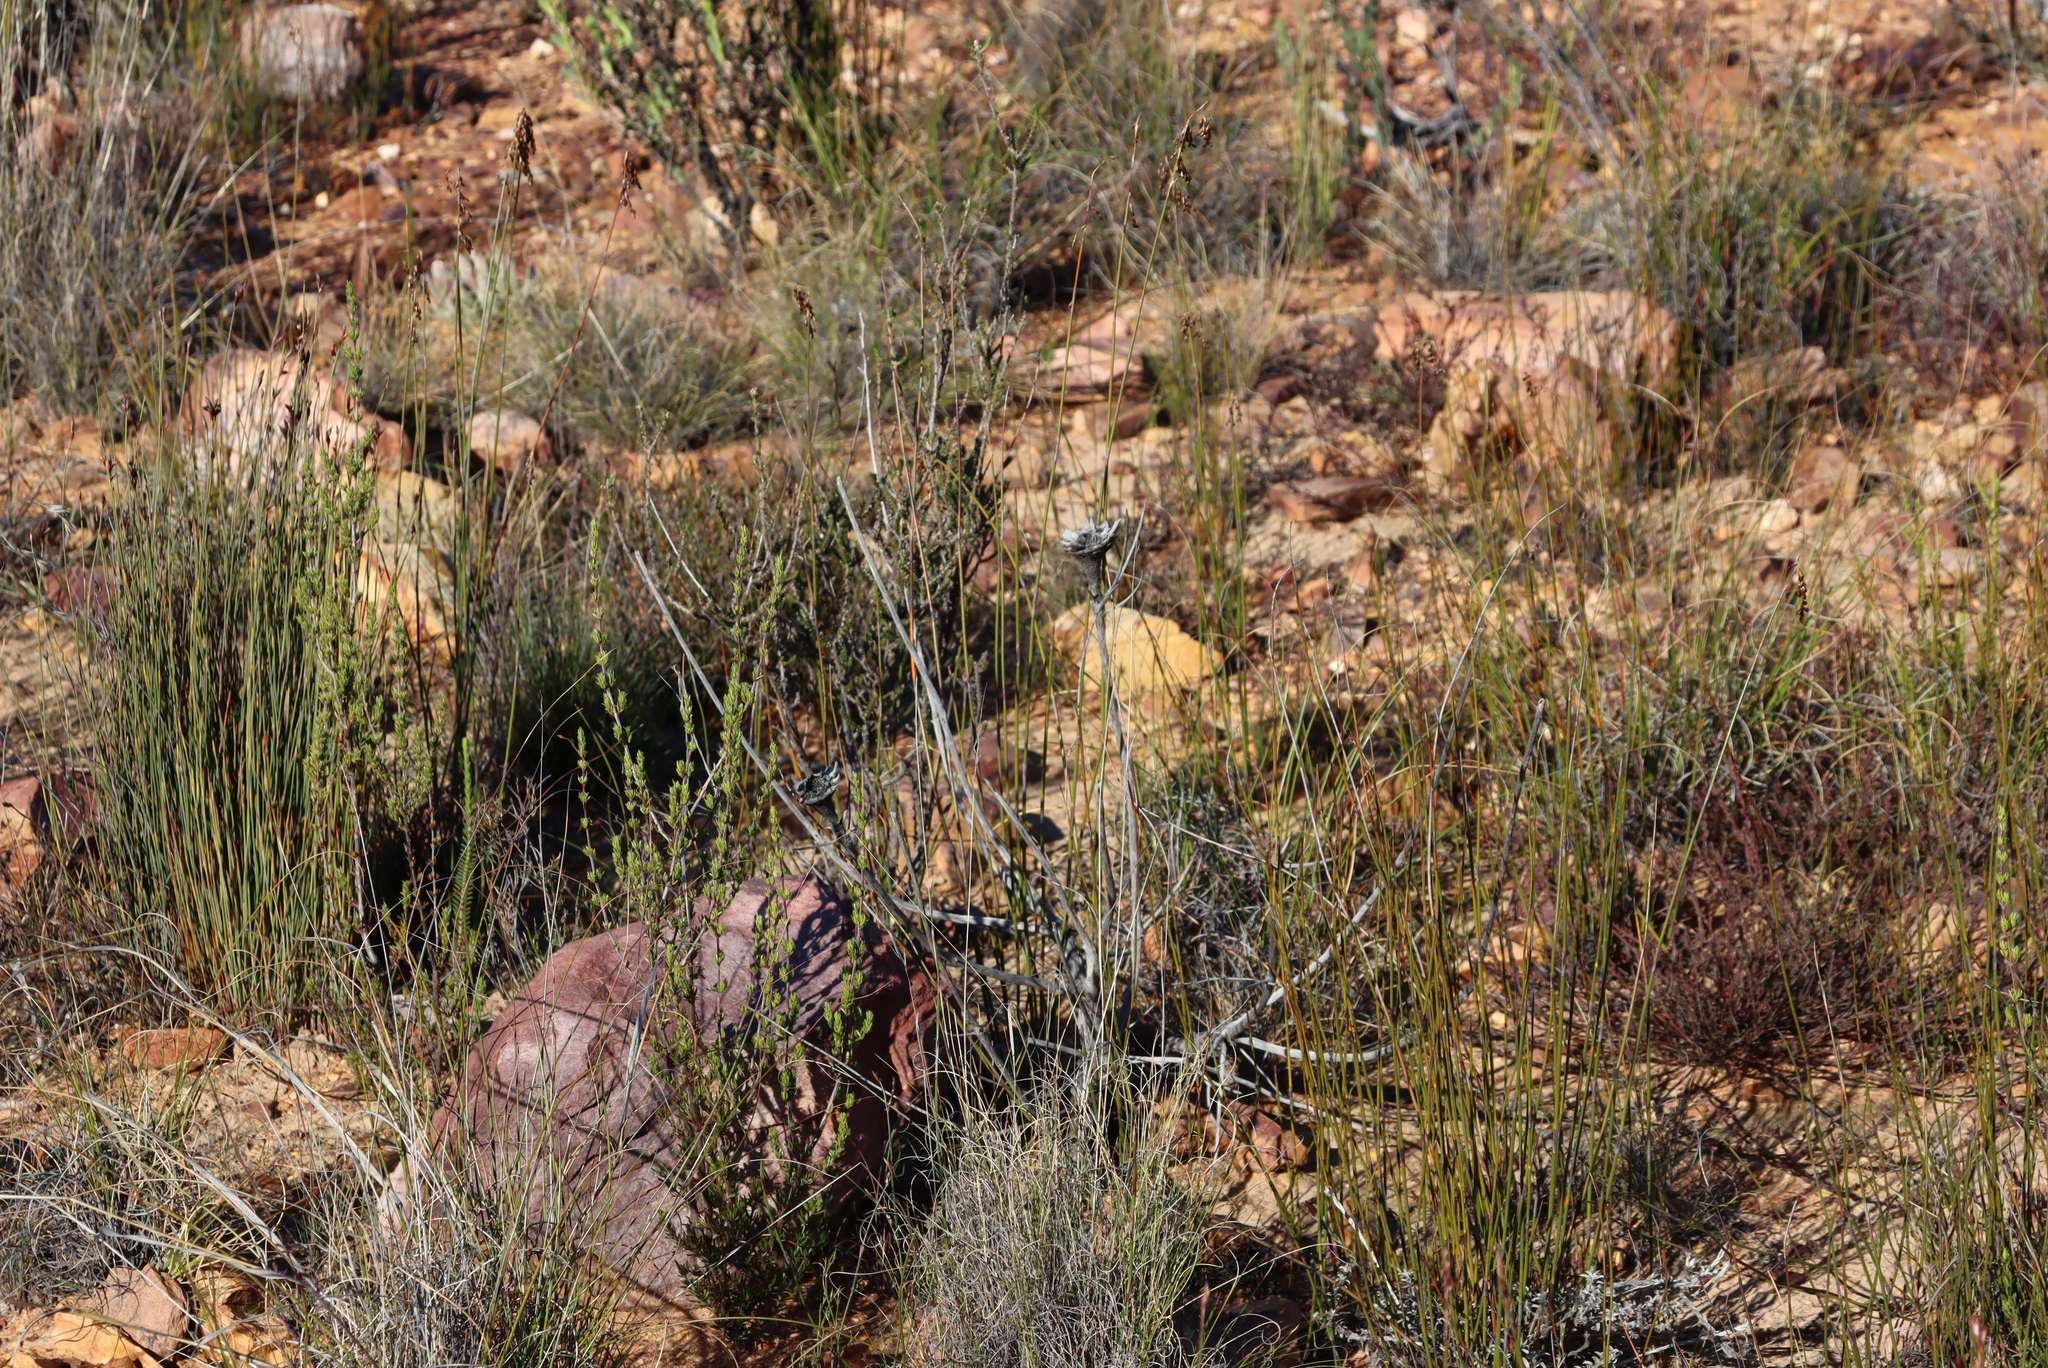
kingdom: Plantae
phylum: Tracheophyta
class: Magnoliopsida
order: Proteales
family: Proteaceae
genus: Protea
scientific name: Protea repens
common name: Sugarbush
